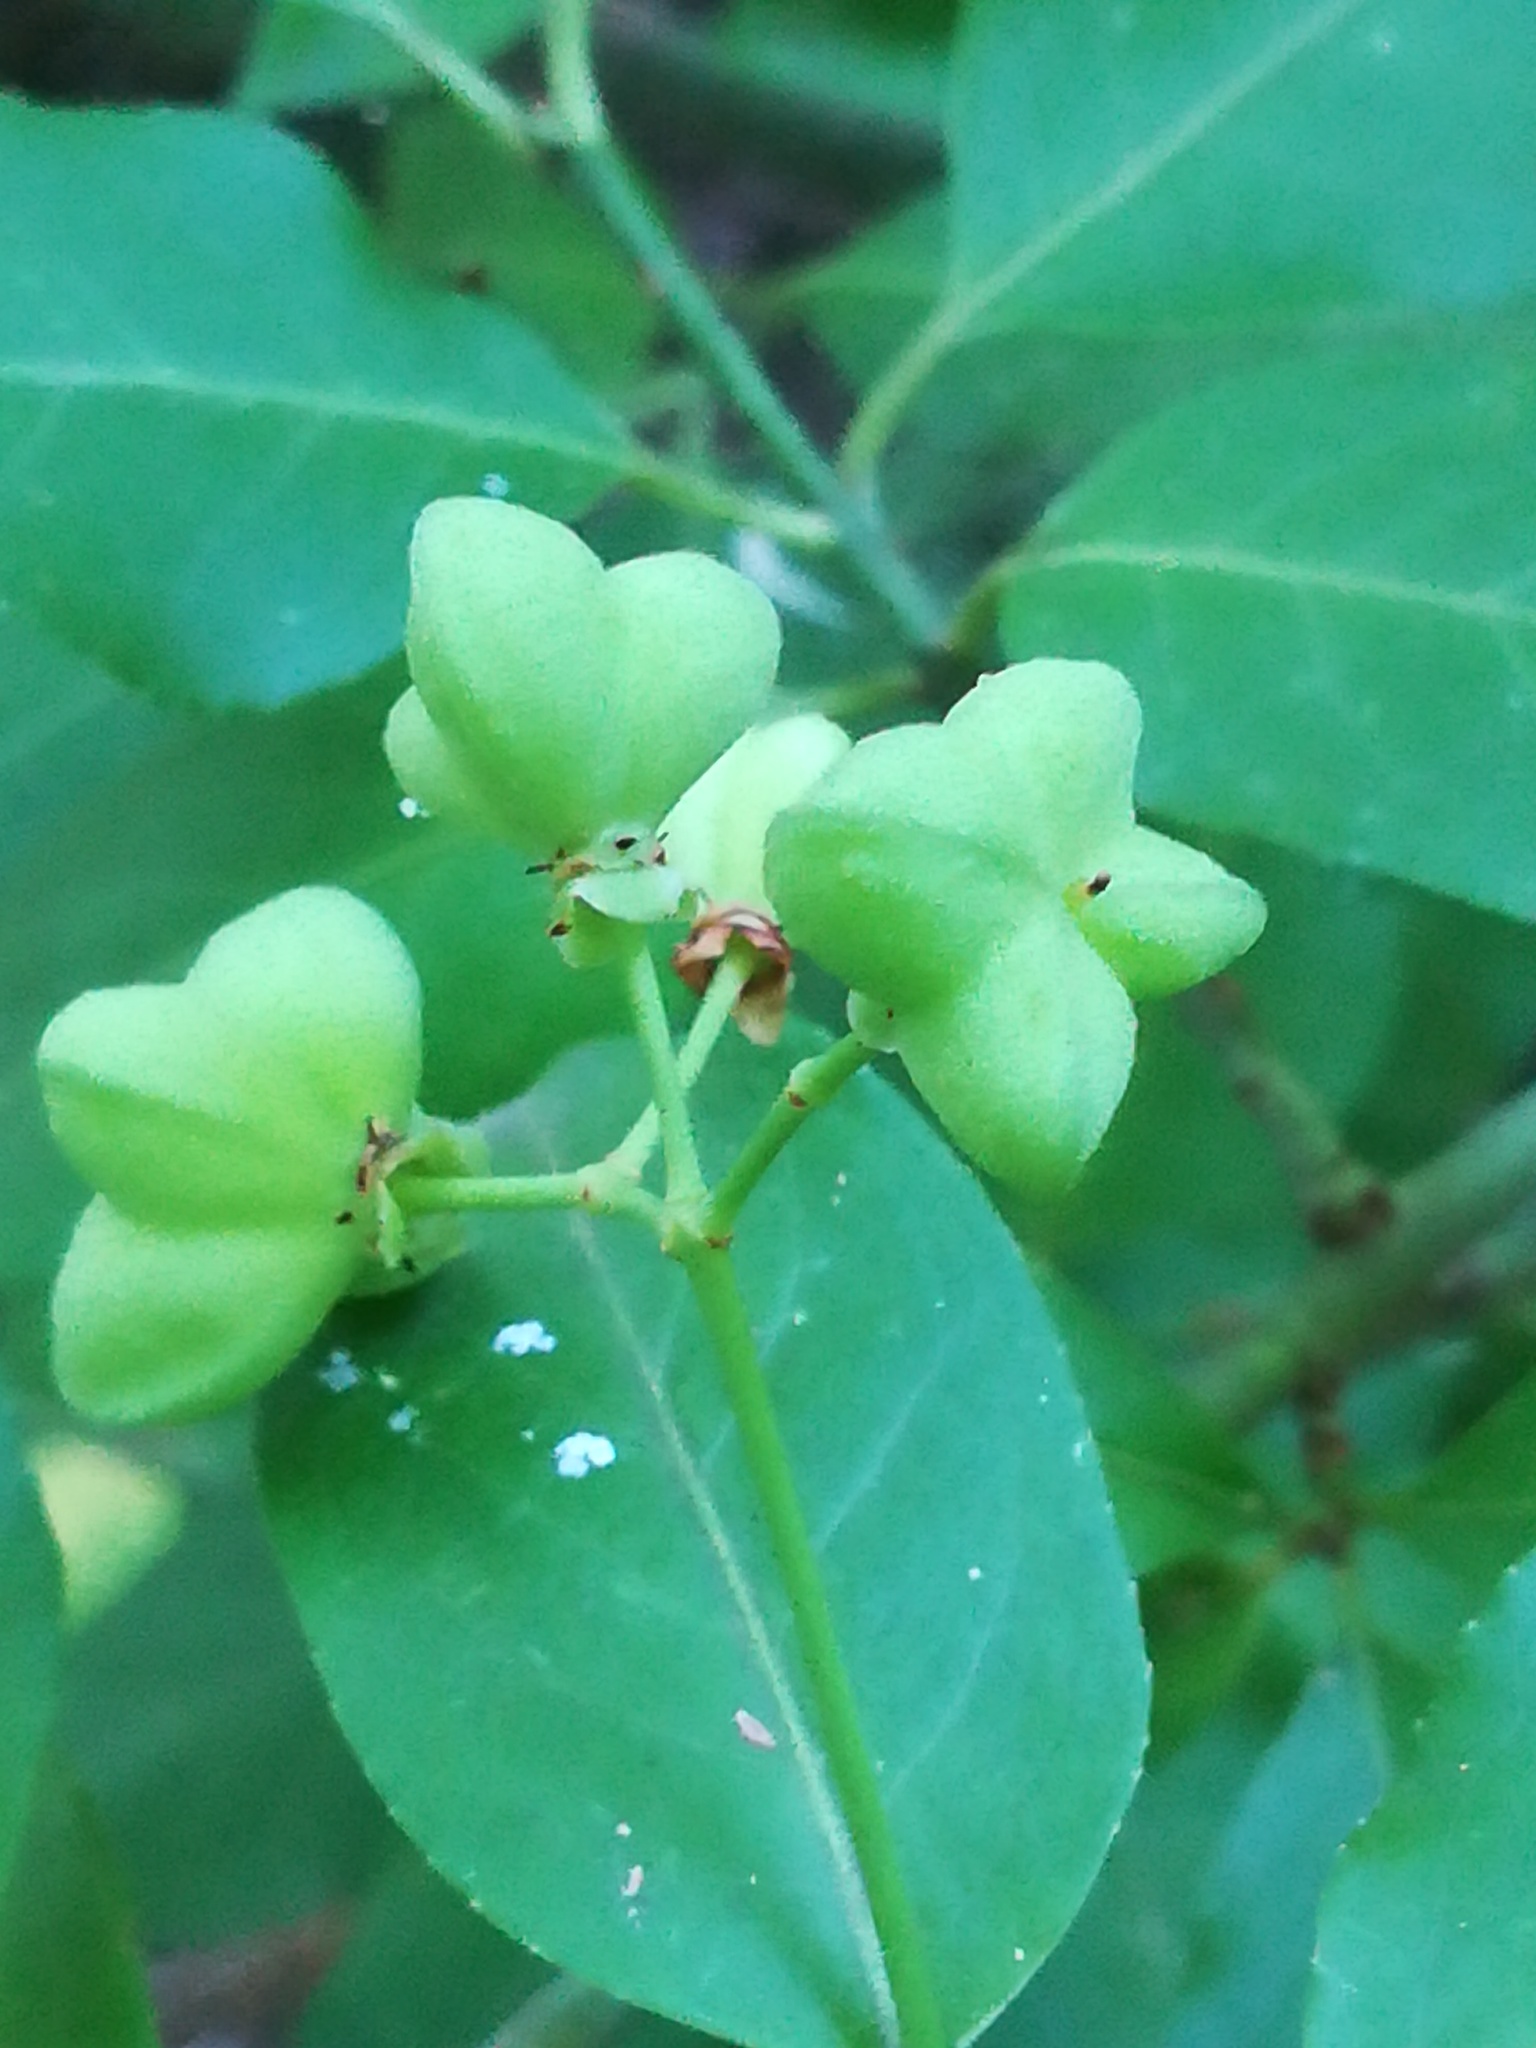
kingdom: Plantae
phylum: Tracheophyta
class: Magnoliopsida
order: Celastrales
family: Celastraceae
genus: Euonymus
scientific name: Euonymus europaeus
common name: Spindle
